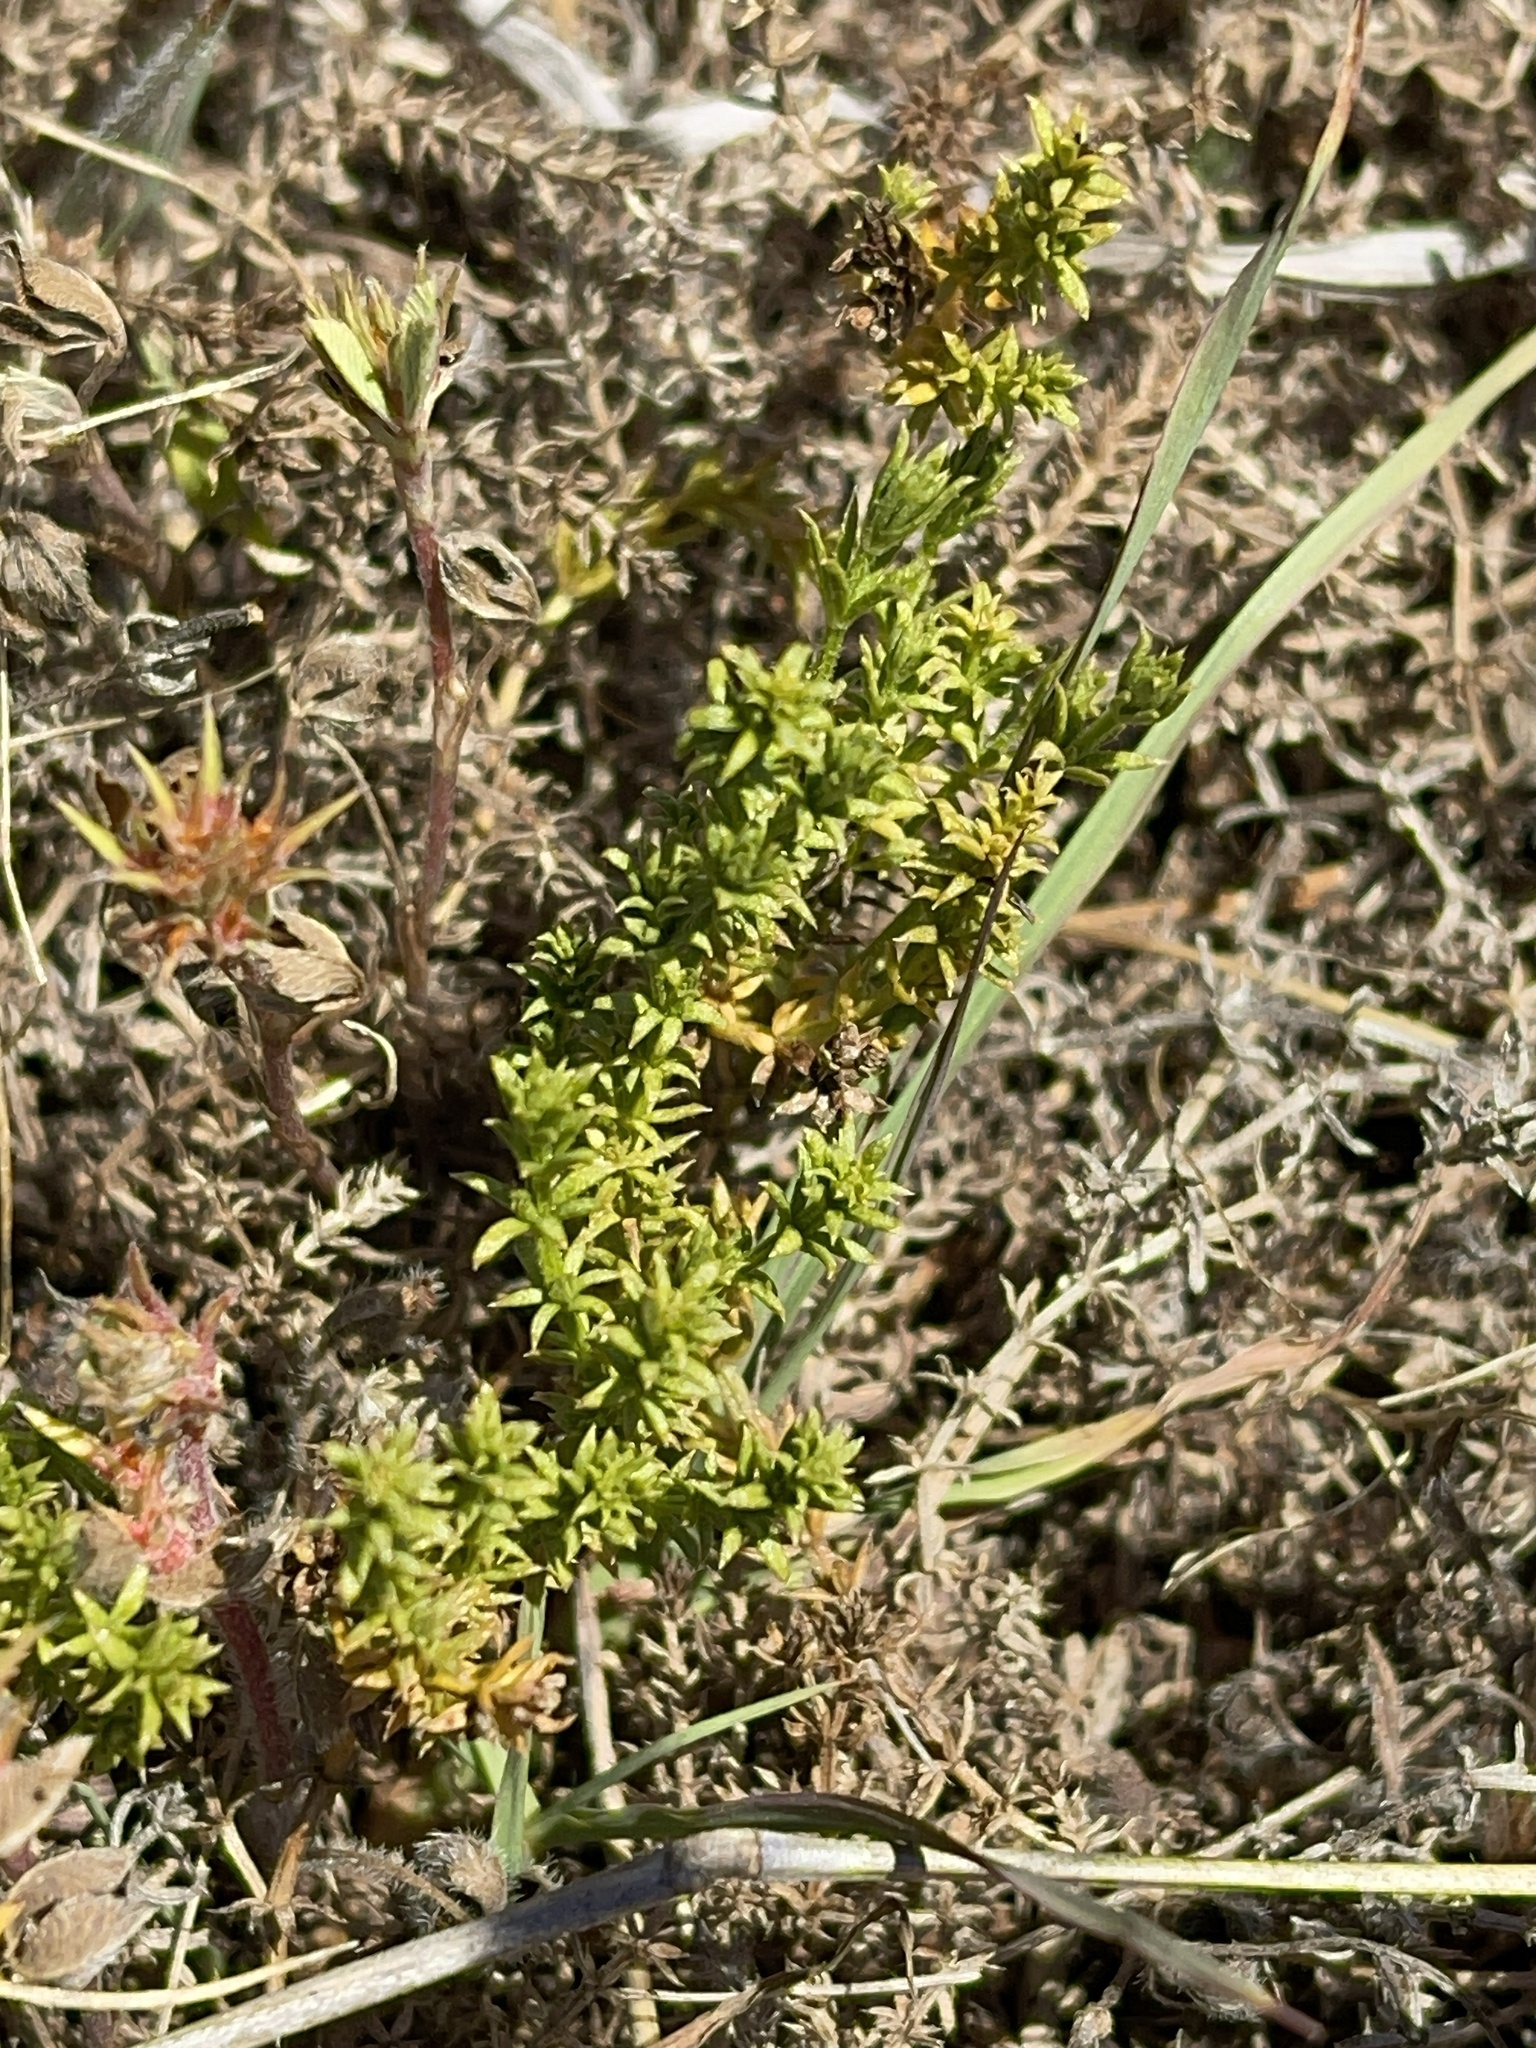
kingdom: Plantae
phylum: Tracheophyta
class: Magnoliopsida
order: Gentianales
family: Rubiaceae
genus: Asperula
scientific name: Asperula conferta
